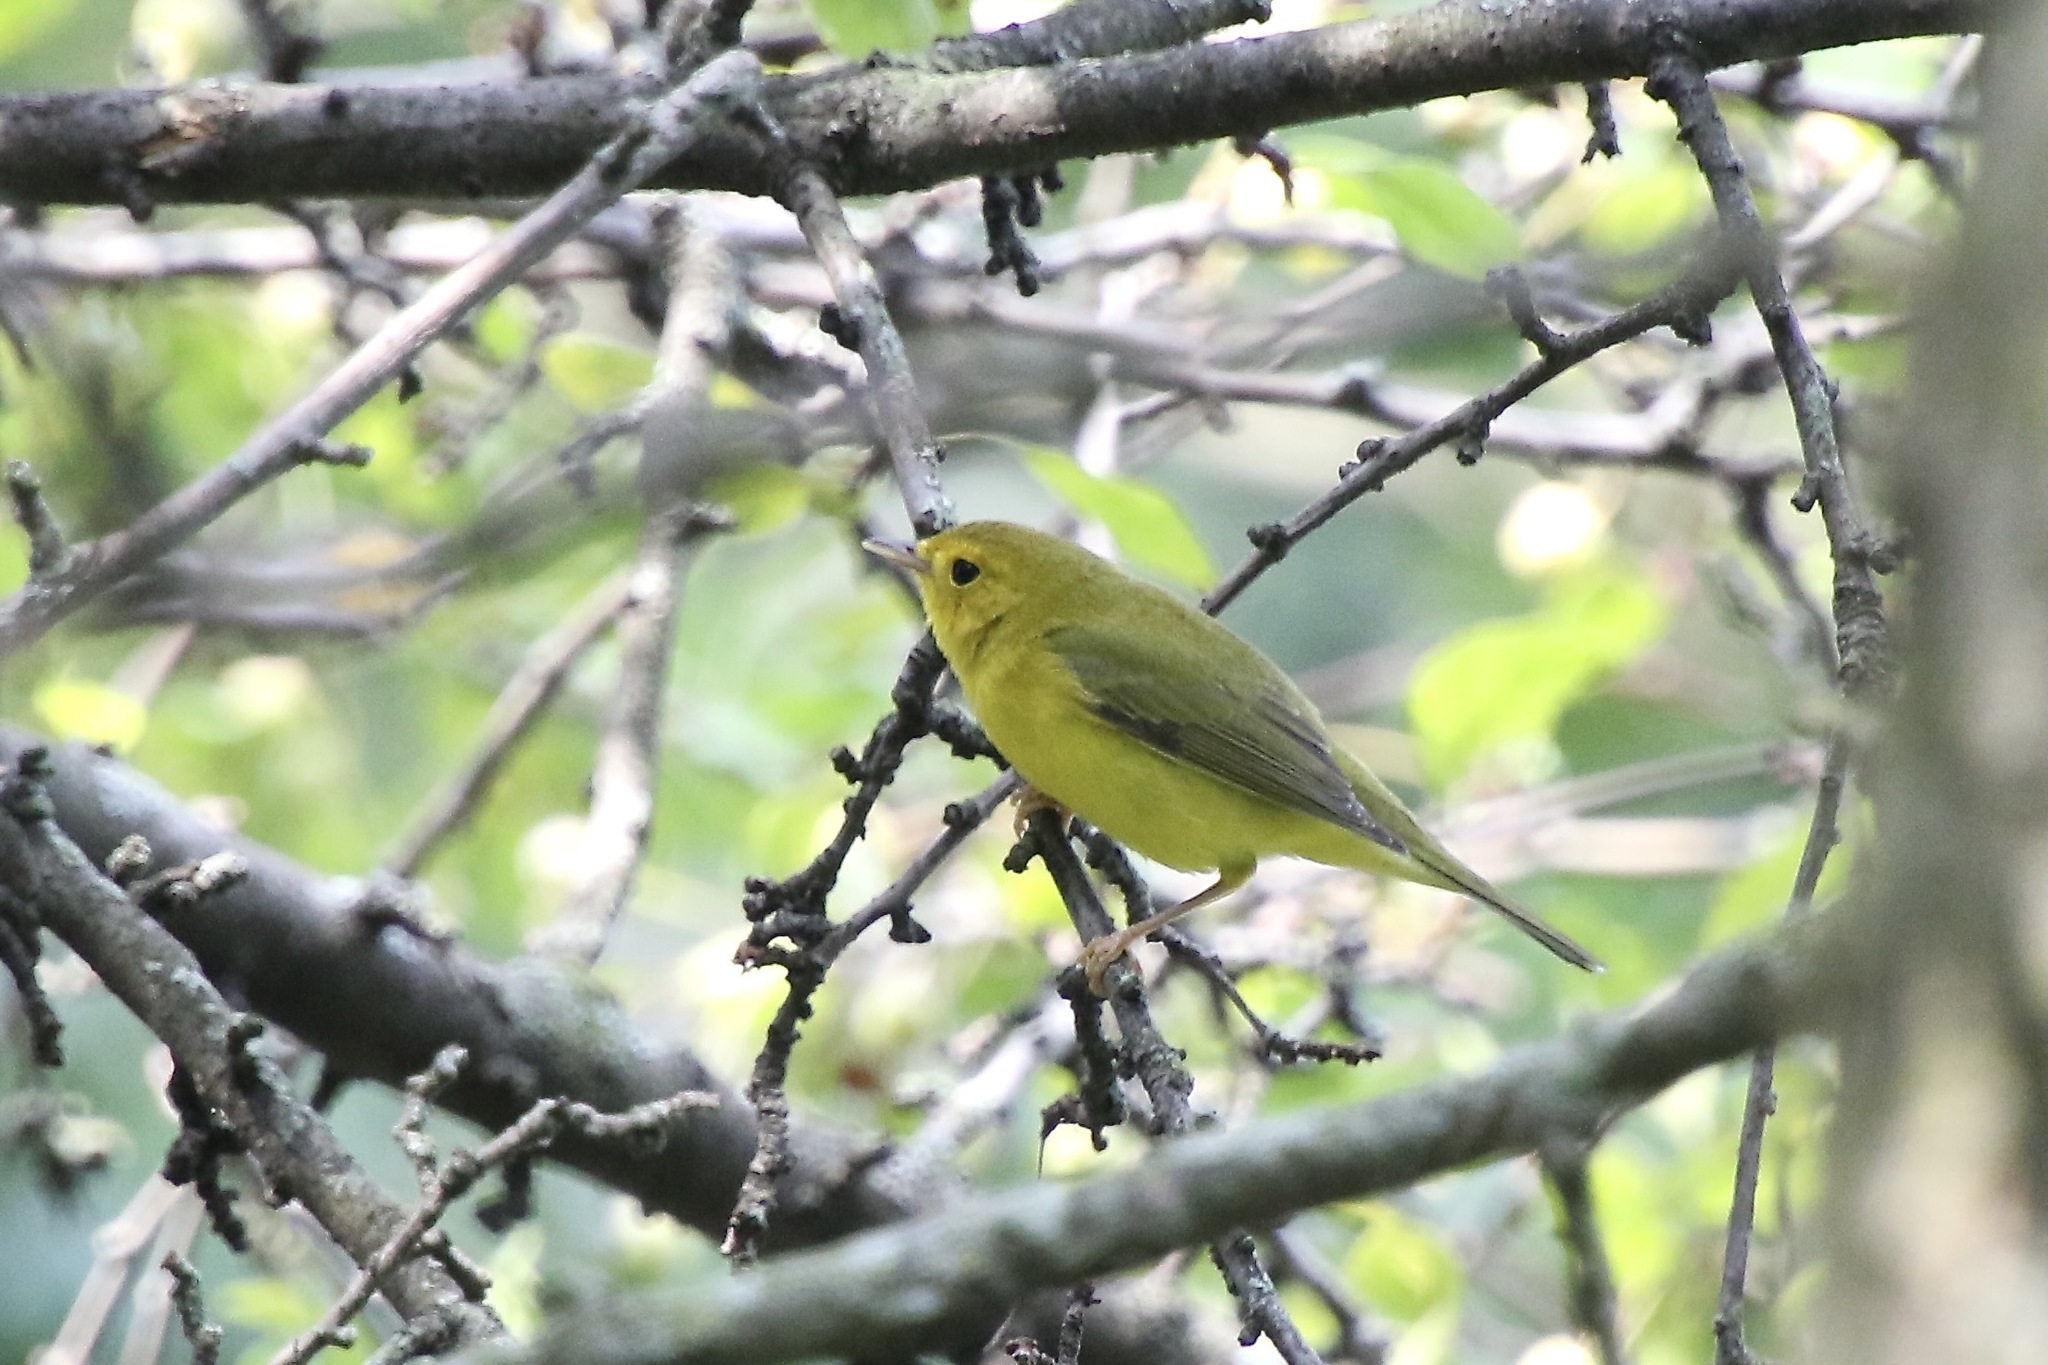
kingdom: Animalia
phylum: Chordata
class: Aves
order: Passeriformes
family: Parulidae
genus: Cardellina
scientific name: Cardellina pusilla
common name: Wilson's warbler
